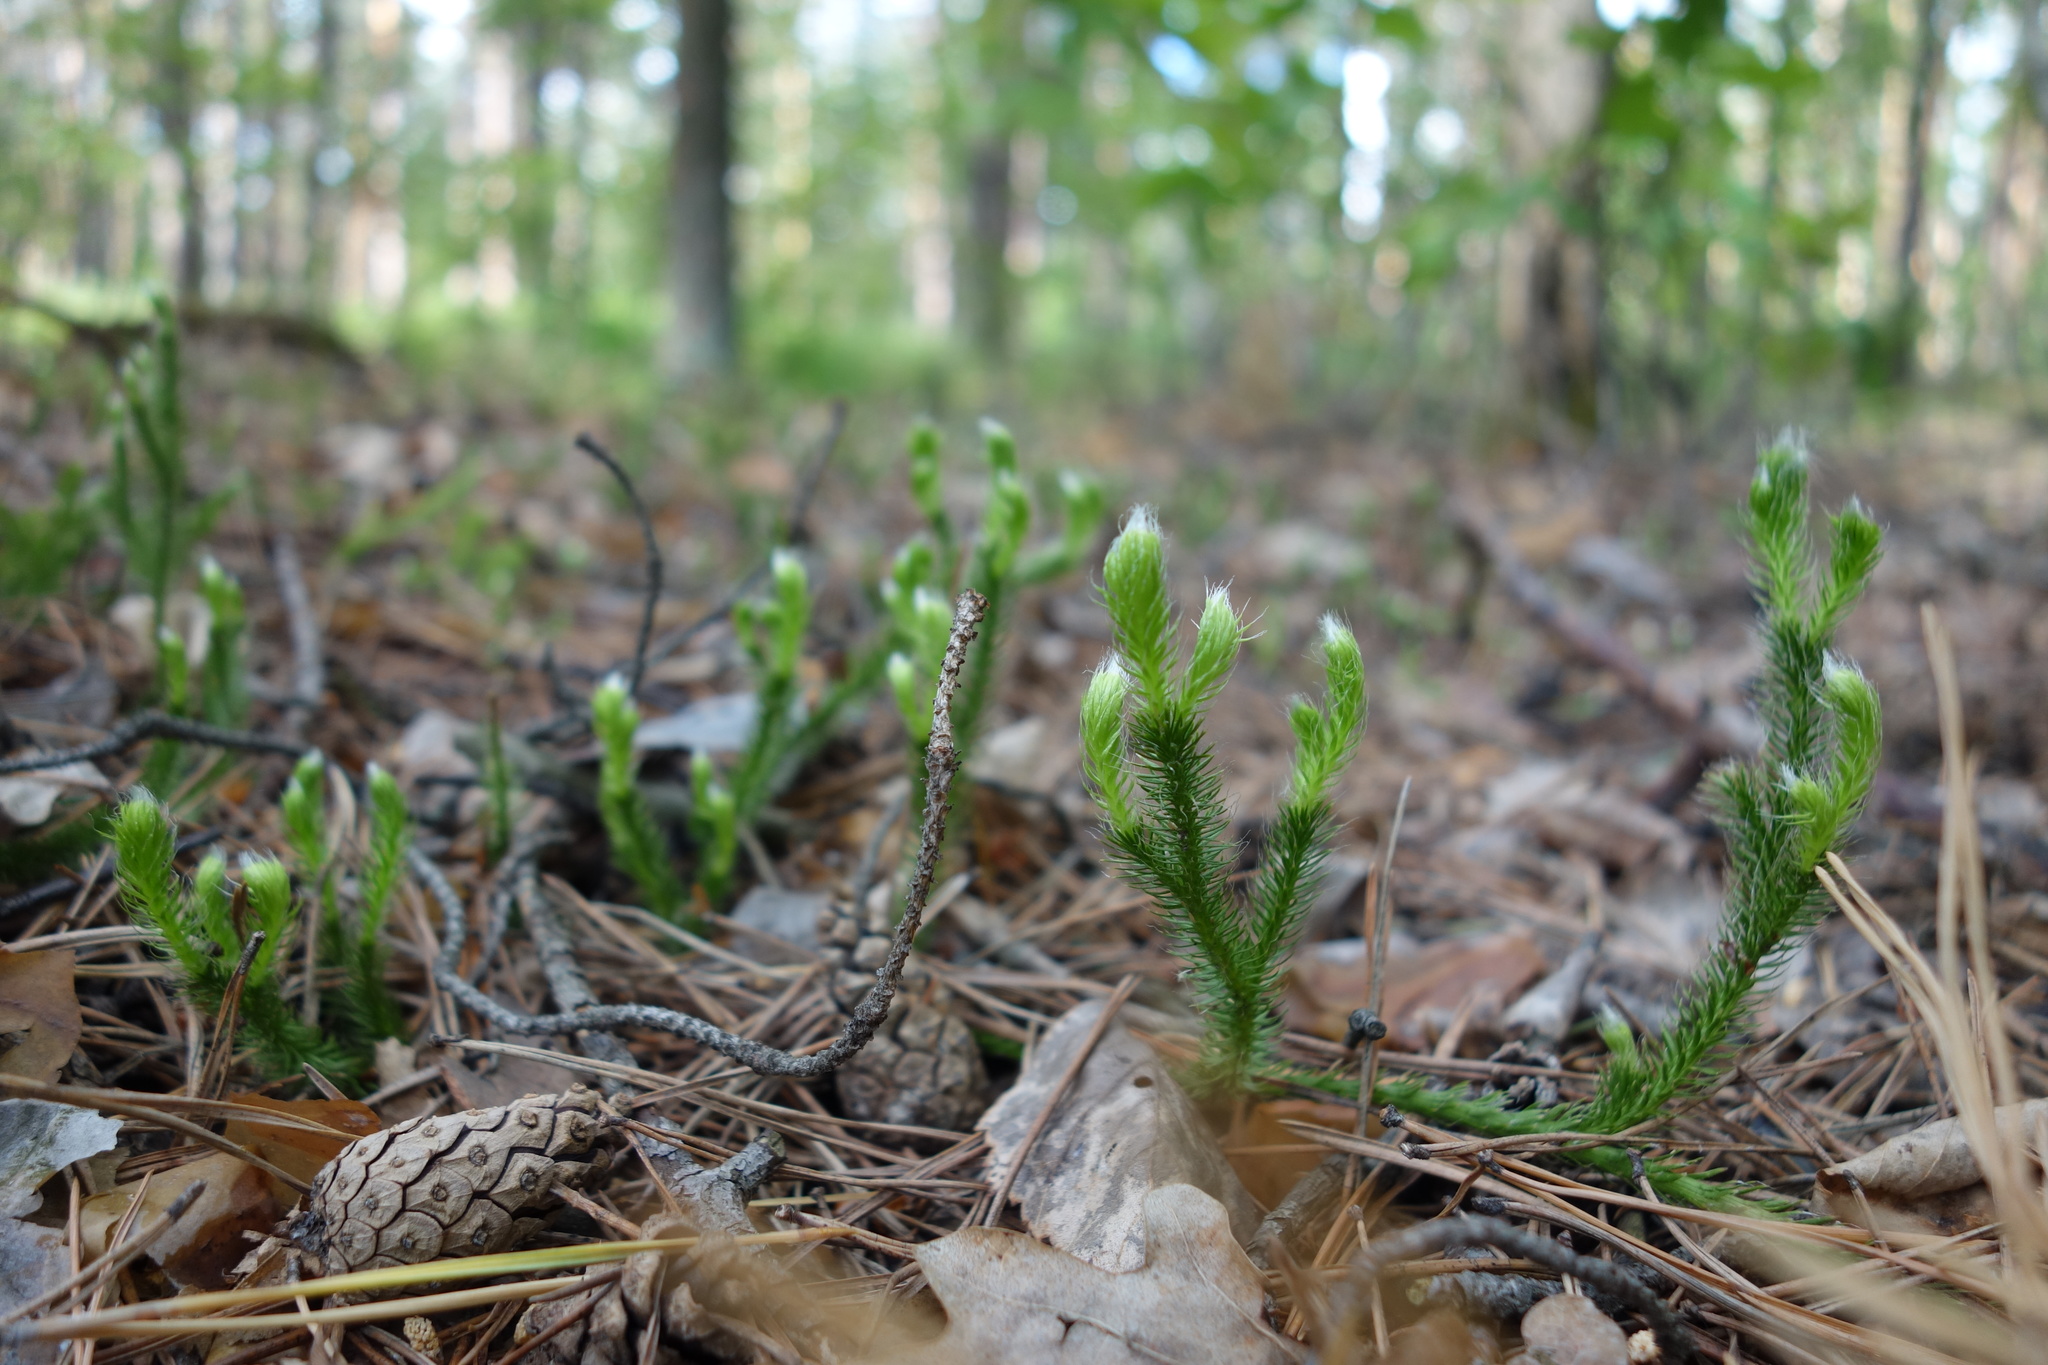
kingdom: Plantae
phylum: Tracheophyta
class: Lycopodiopsida
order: Lycopodiales
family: Lycopodiaceae
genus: Lycopodium
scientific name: Lycopodium clavatum
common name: Stag's-horn clubmoss
